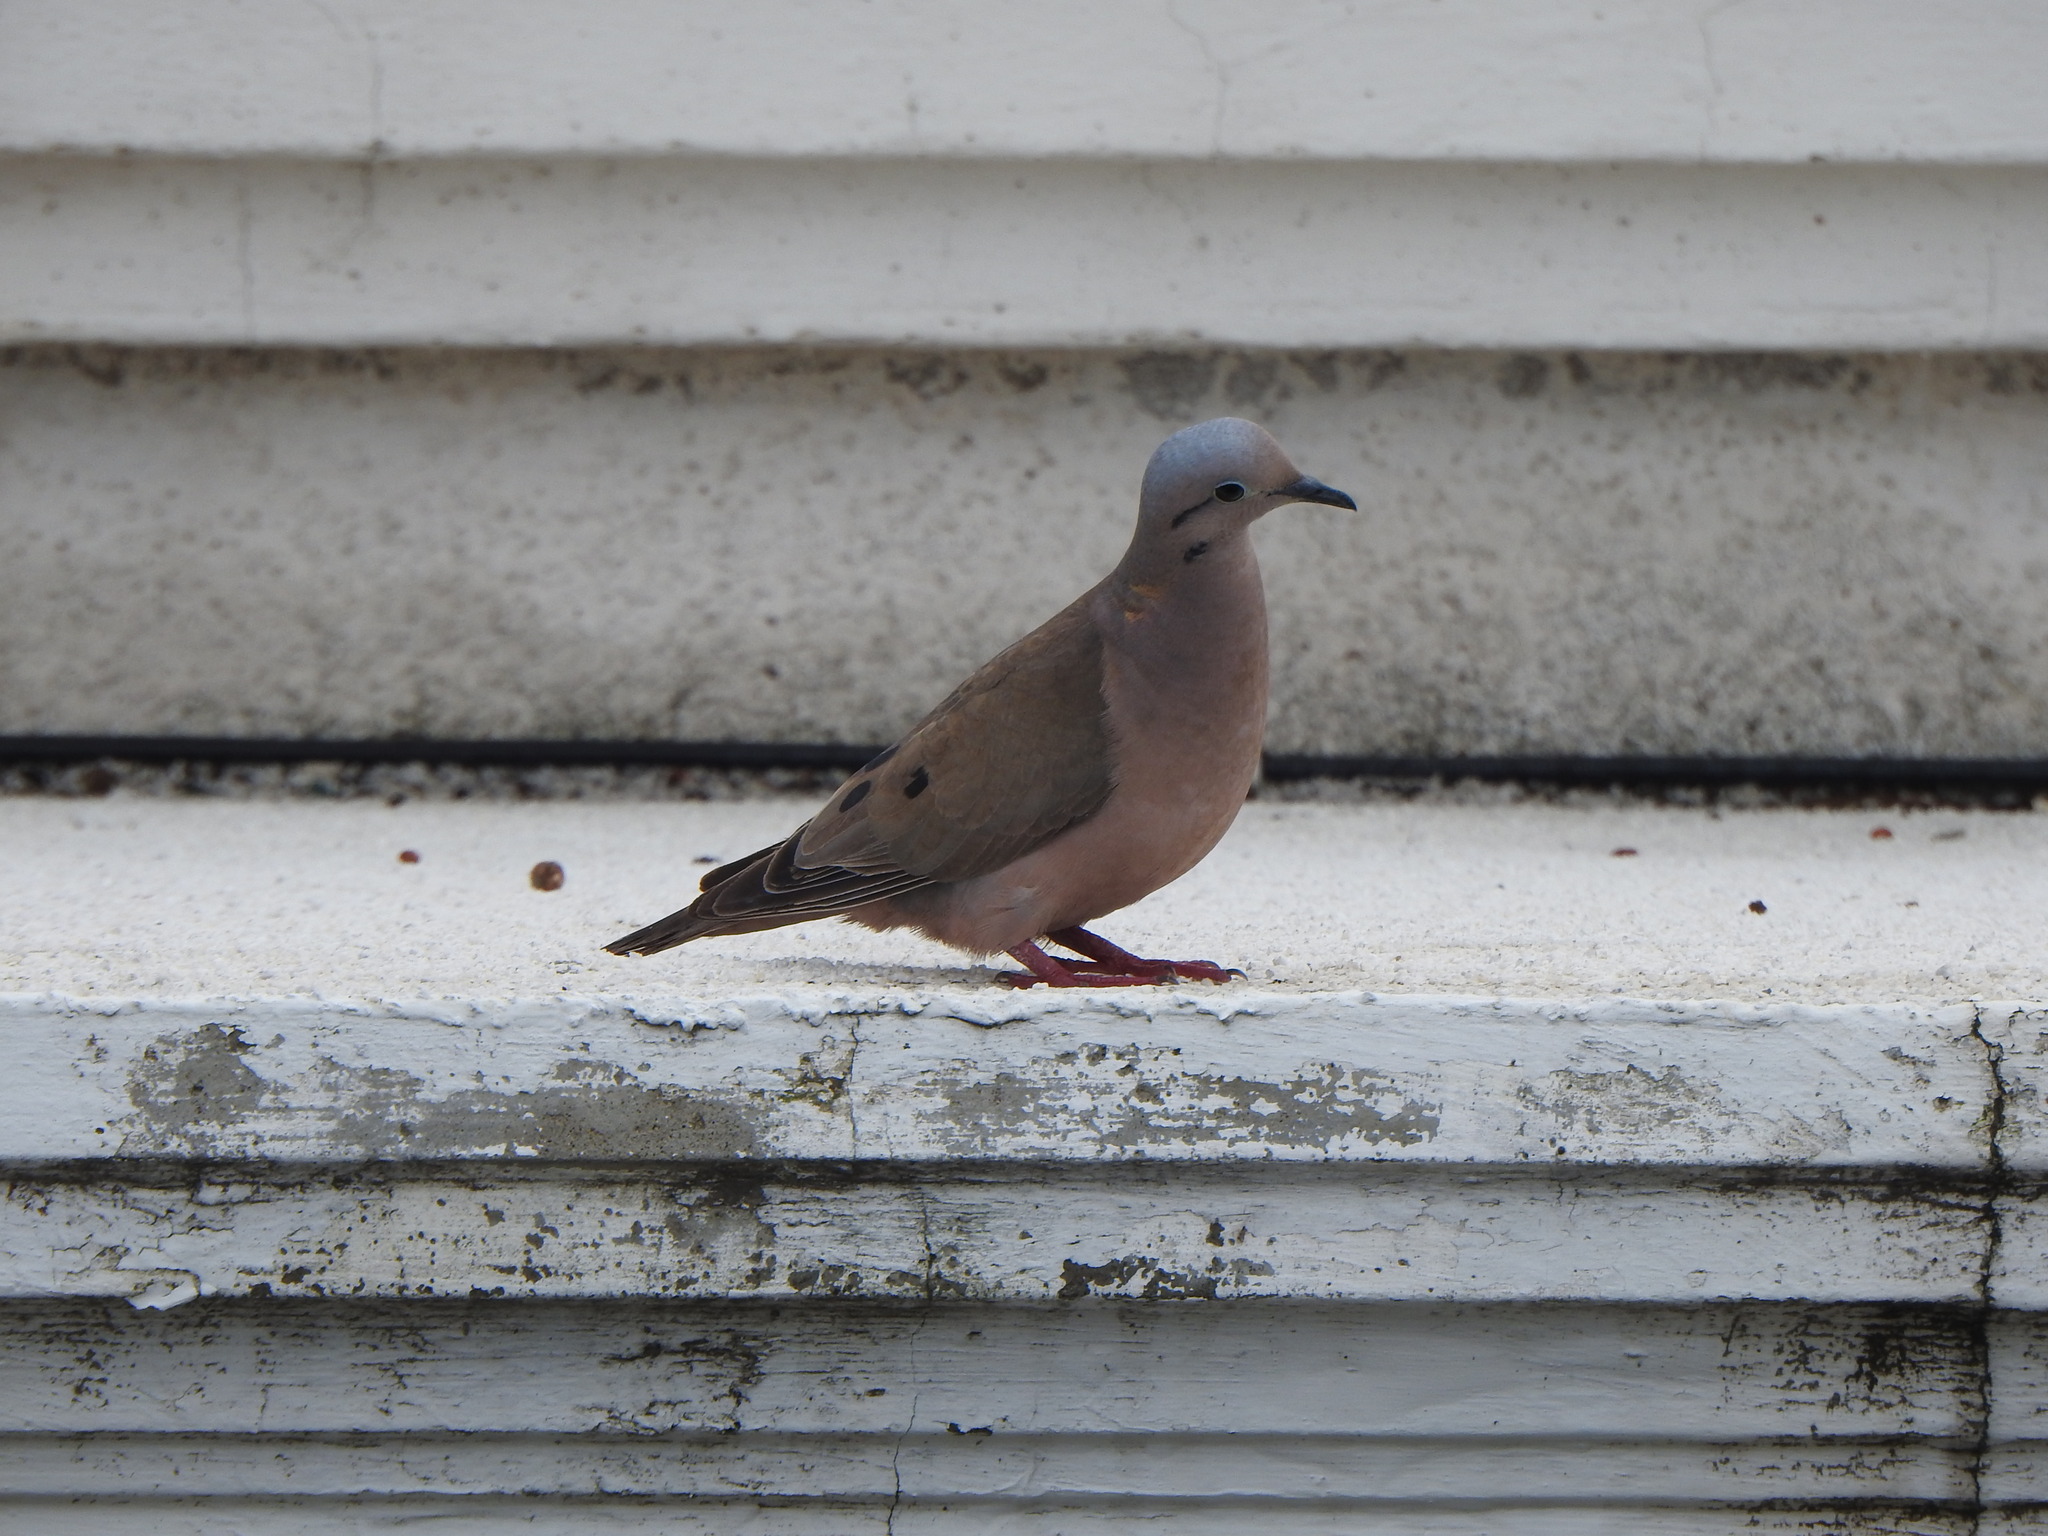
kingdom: Animalia
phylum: Chordata
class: Aves
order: Columbiformes
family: Columbidae
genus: Zenaida
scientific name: Zenaida auriculata
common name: Eared dove
